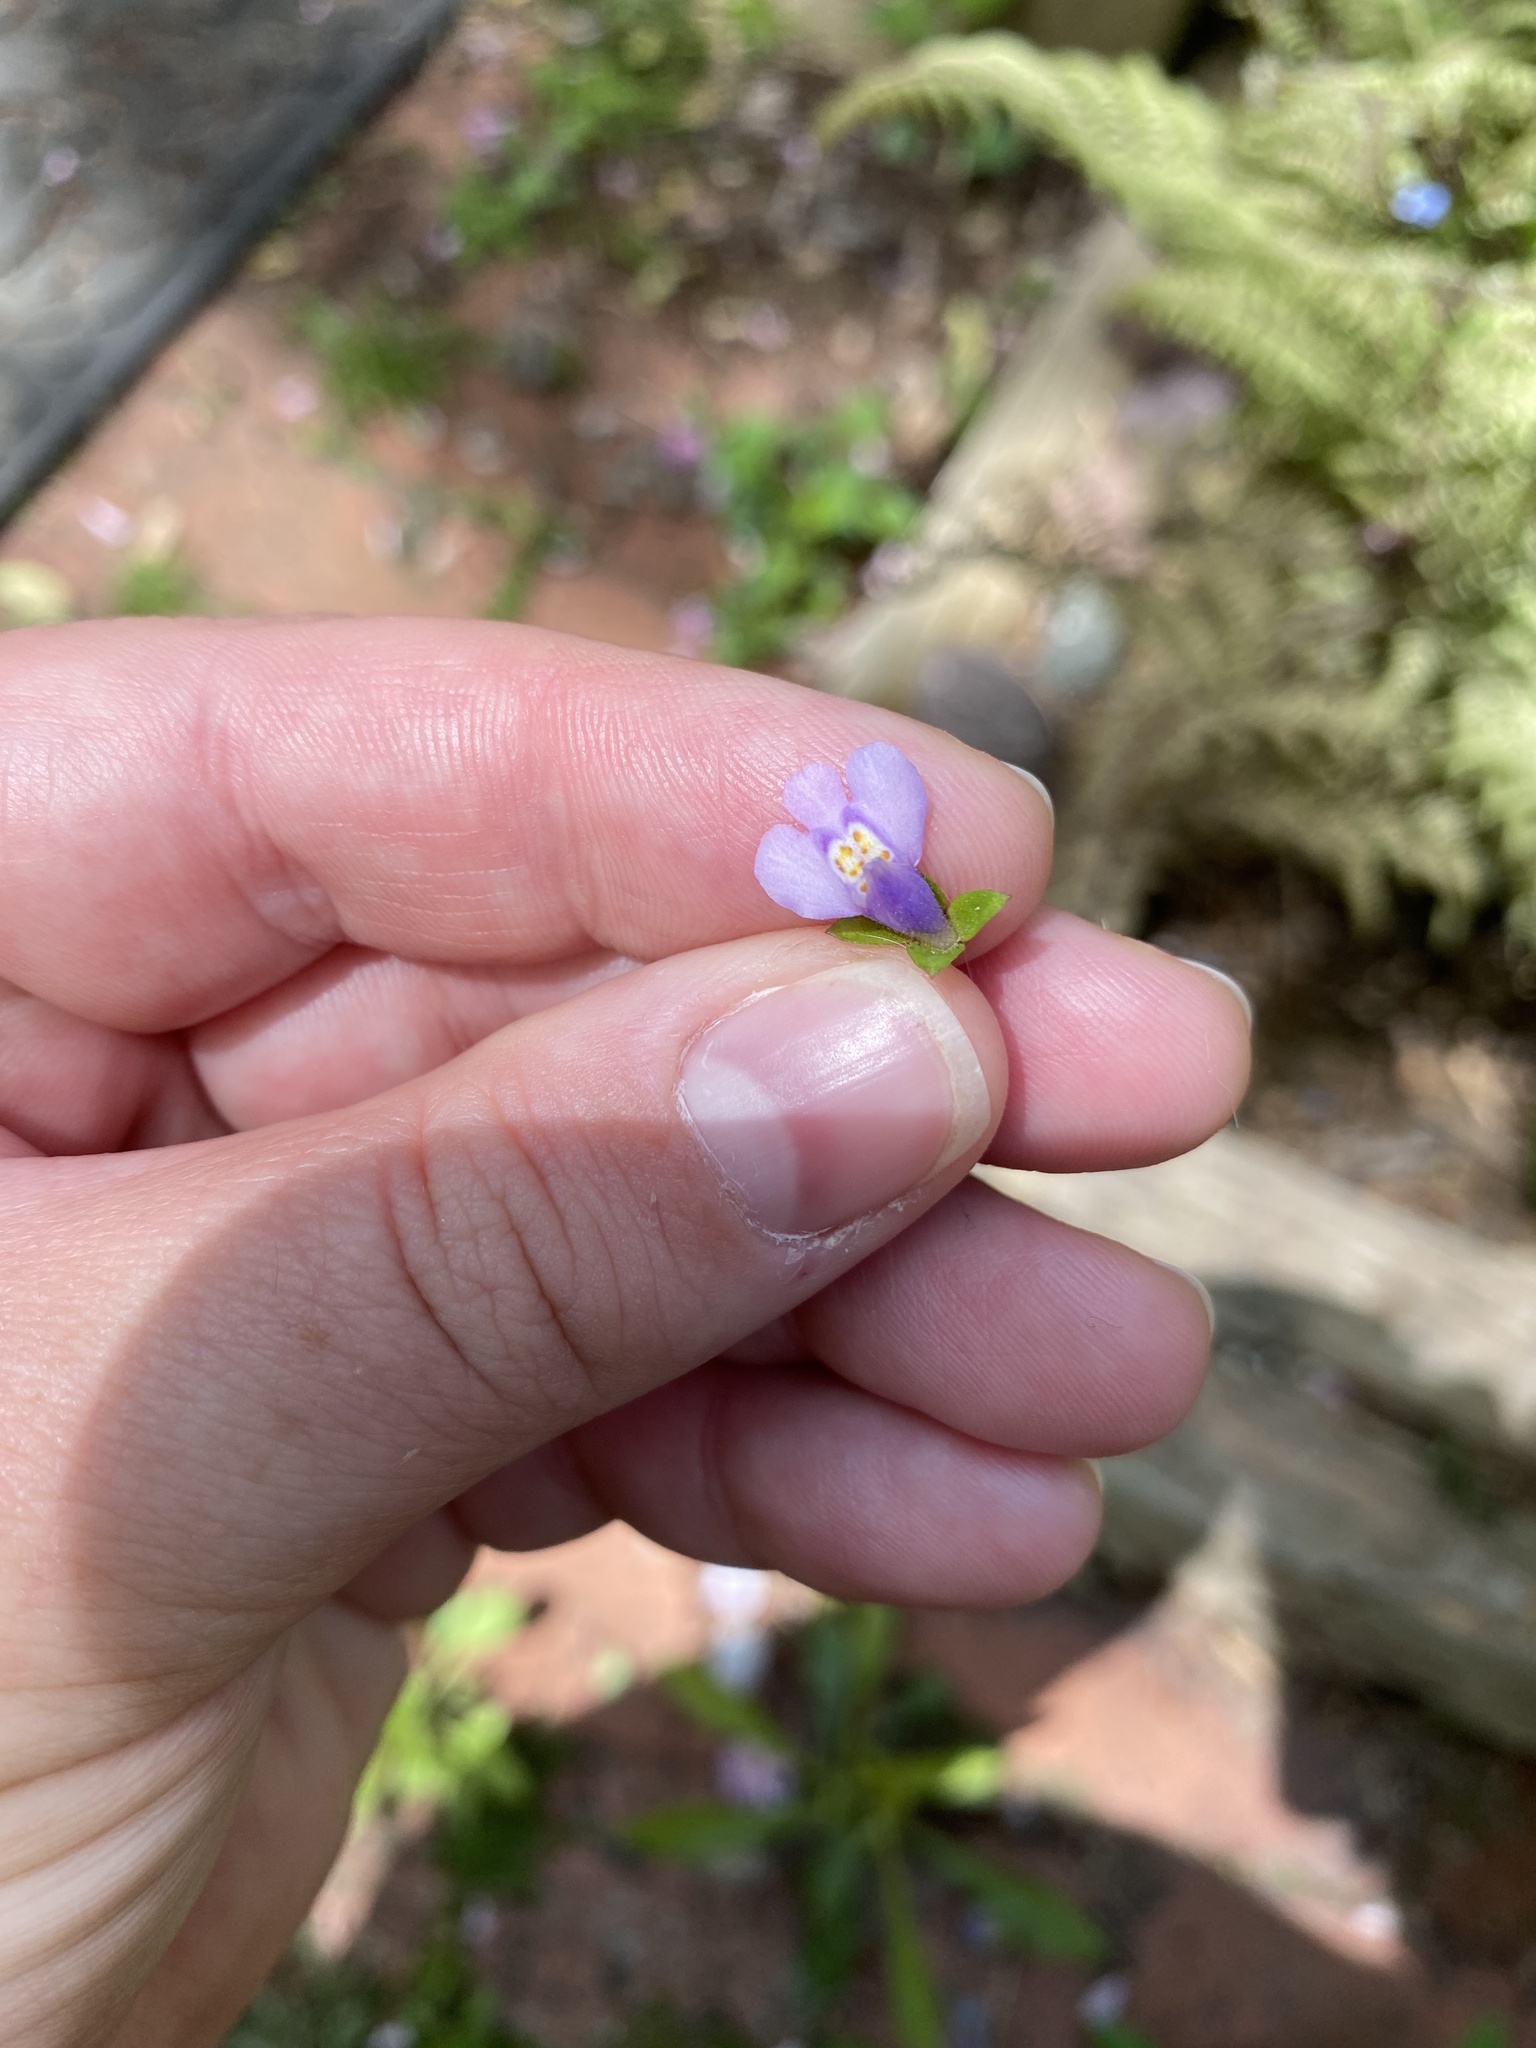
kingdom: Plantae
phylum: Tracheophyta
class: Magnoliopsida
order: Lamiales
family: Mazaceae
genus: Mazus
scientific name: Mazus pumilus
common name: Japanese mazus
